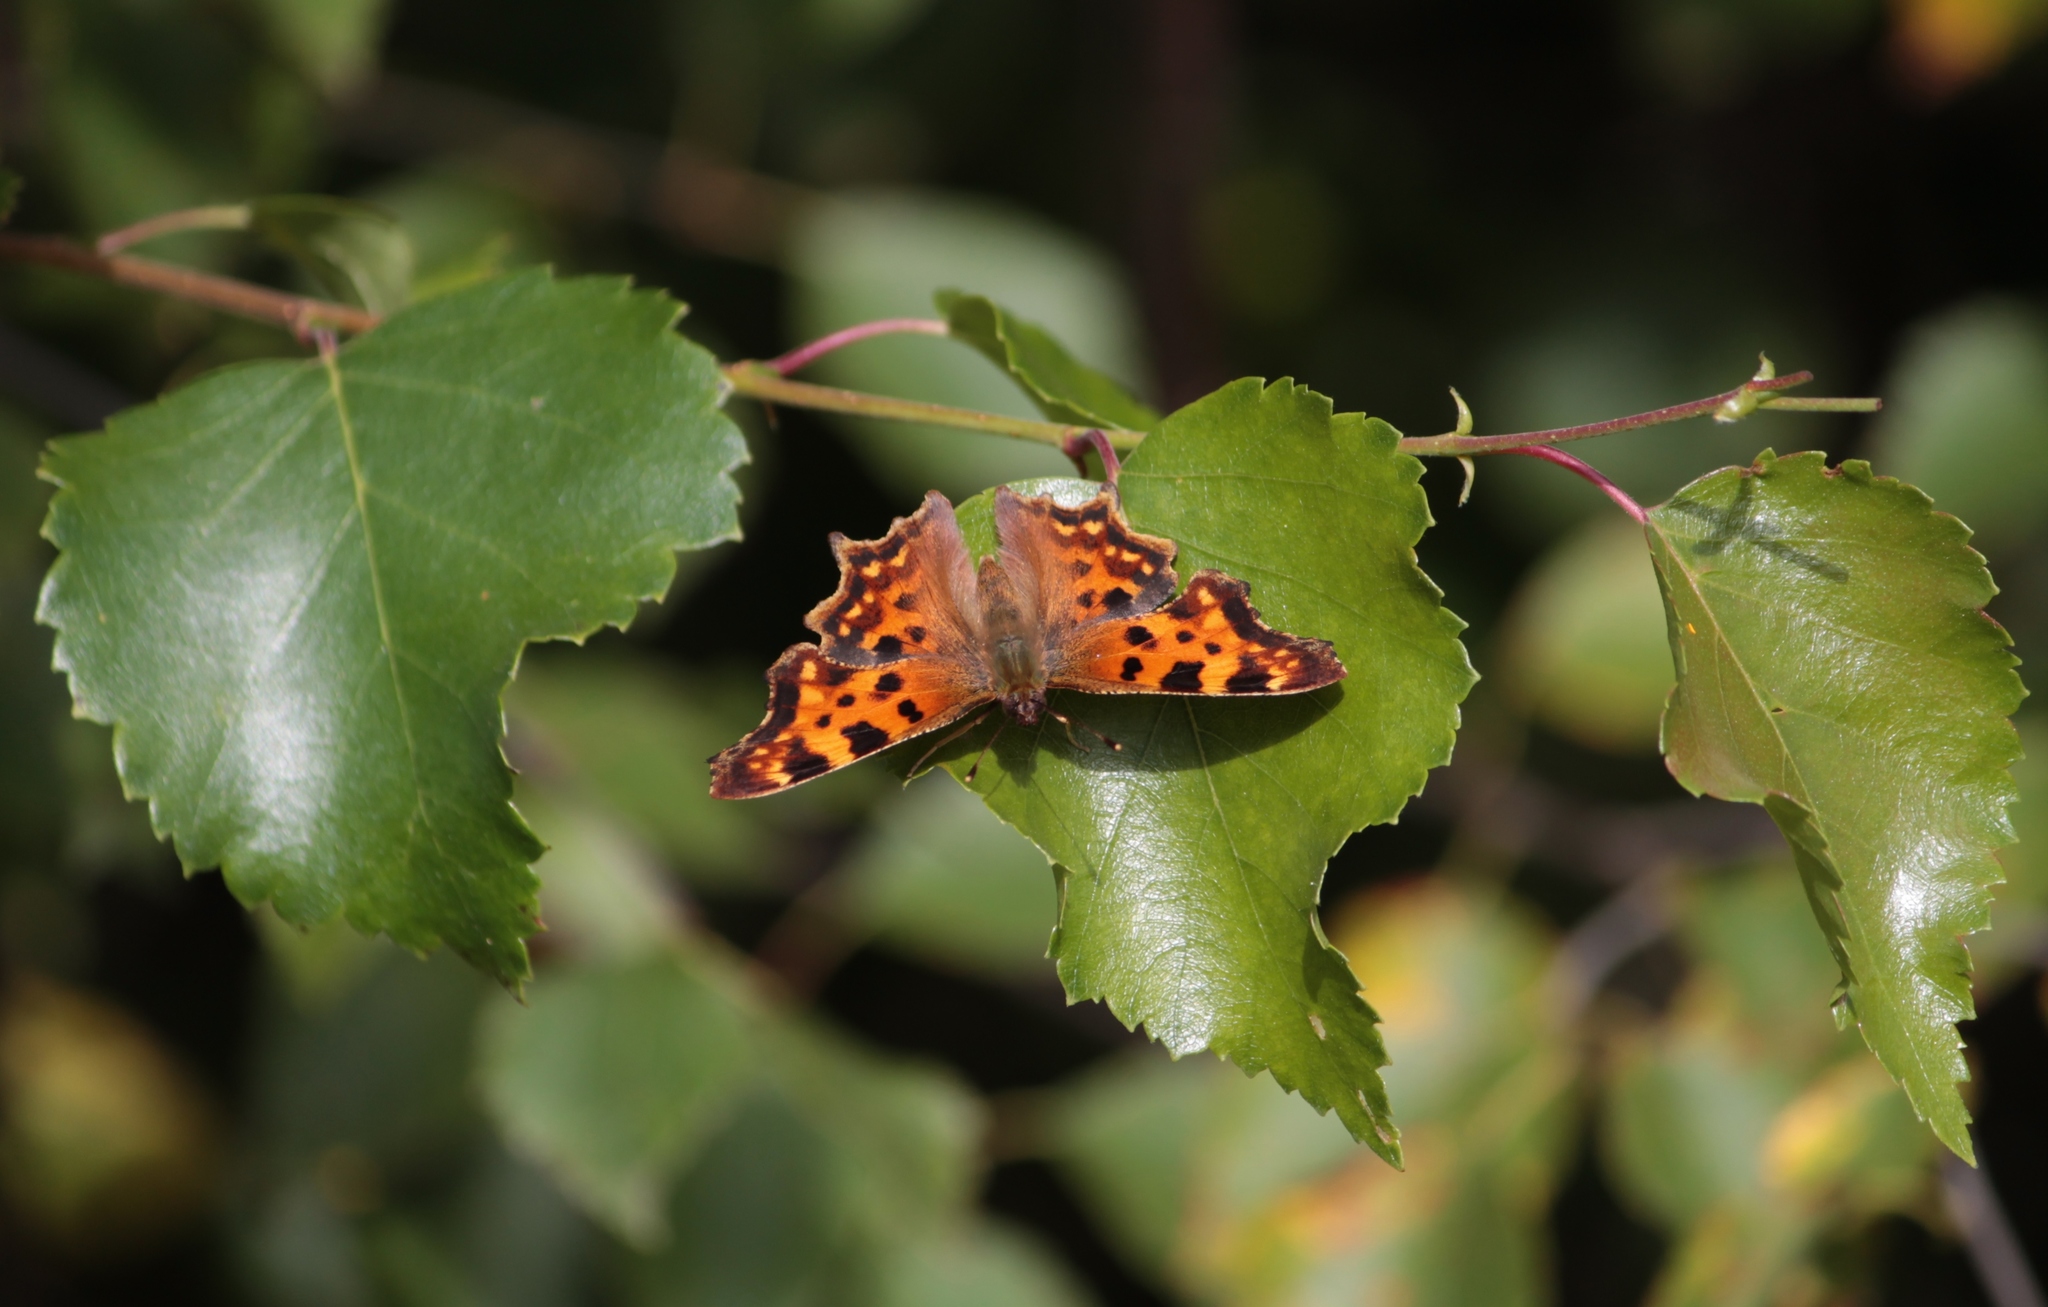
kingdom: Animalia
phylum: Arthropoda
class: Insecta
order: Lepidoptera
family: Nymphalidae
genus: Polygonia
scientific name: Polygonia c-album
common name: Comma
